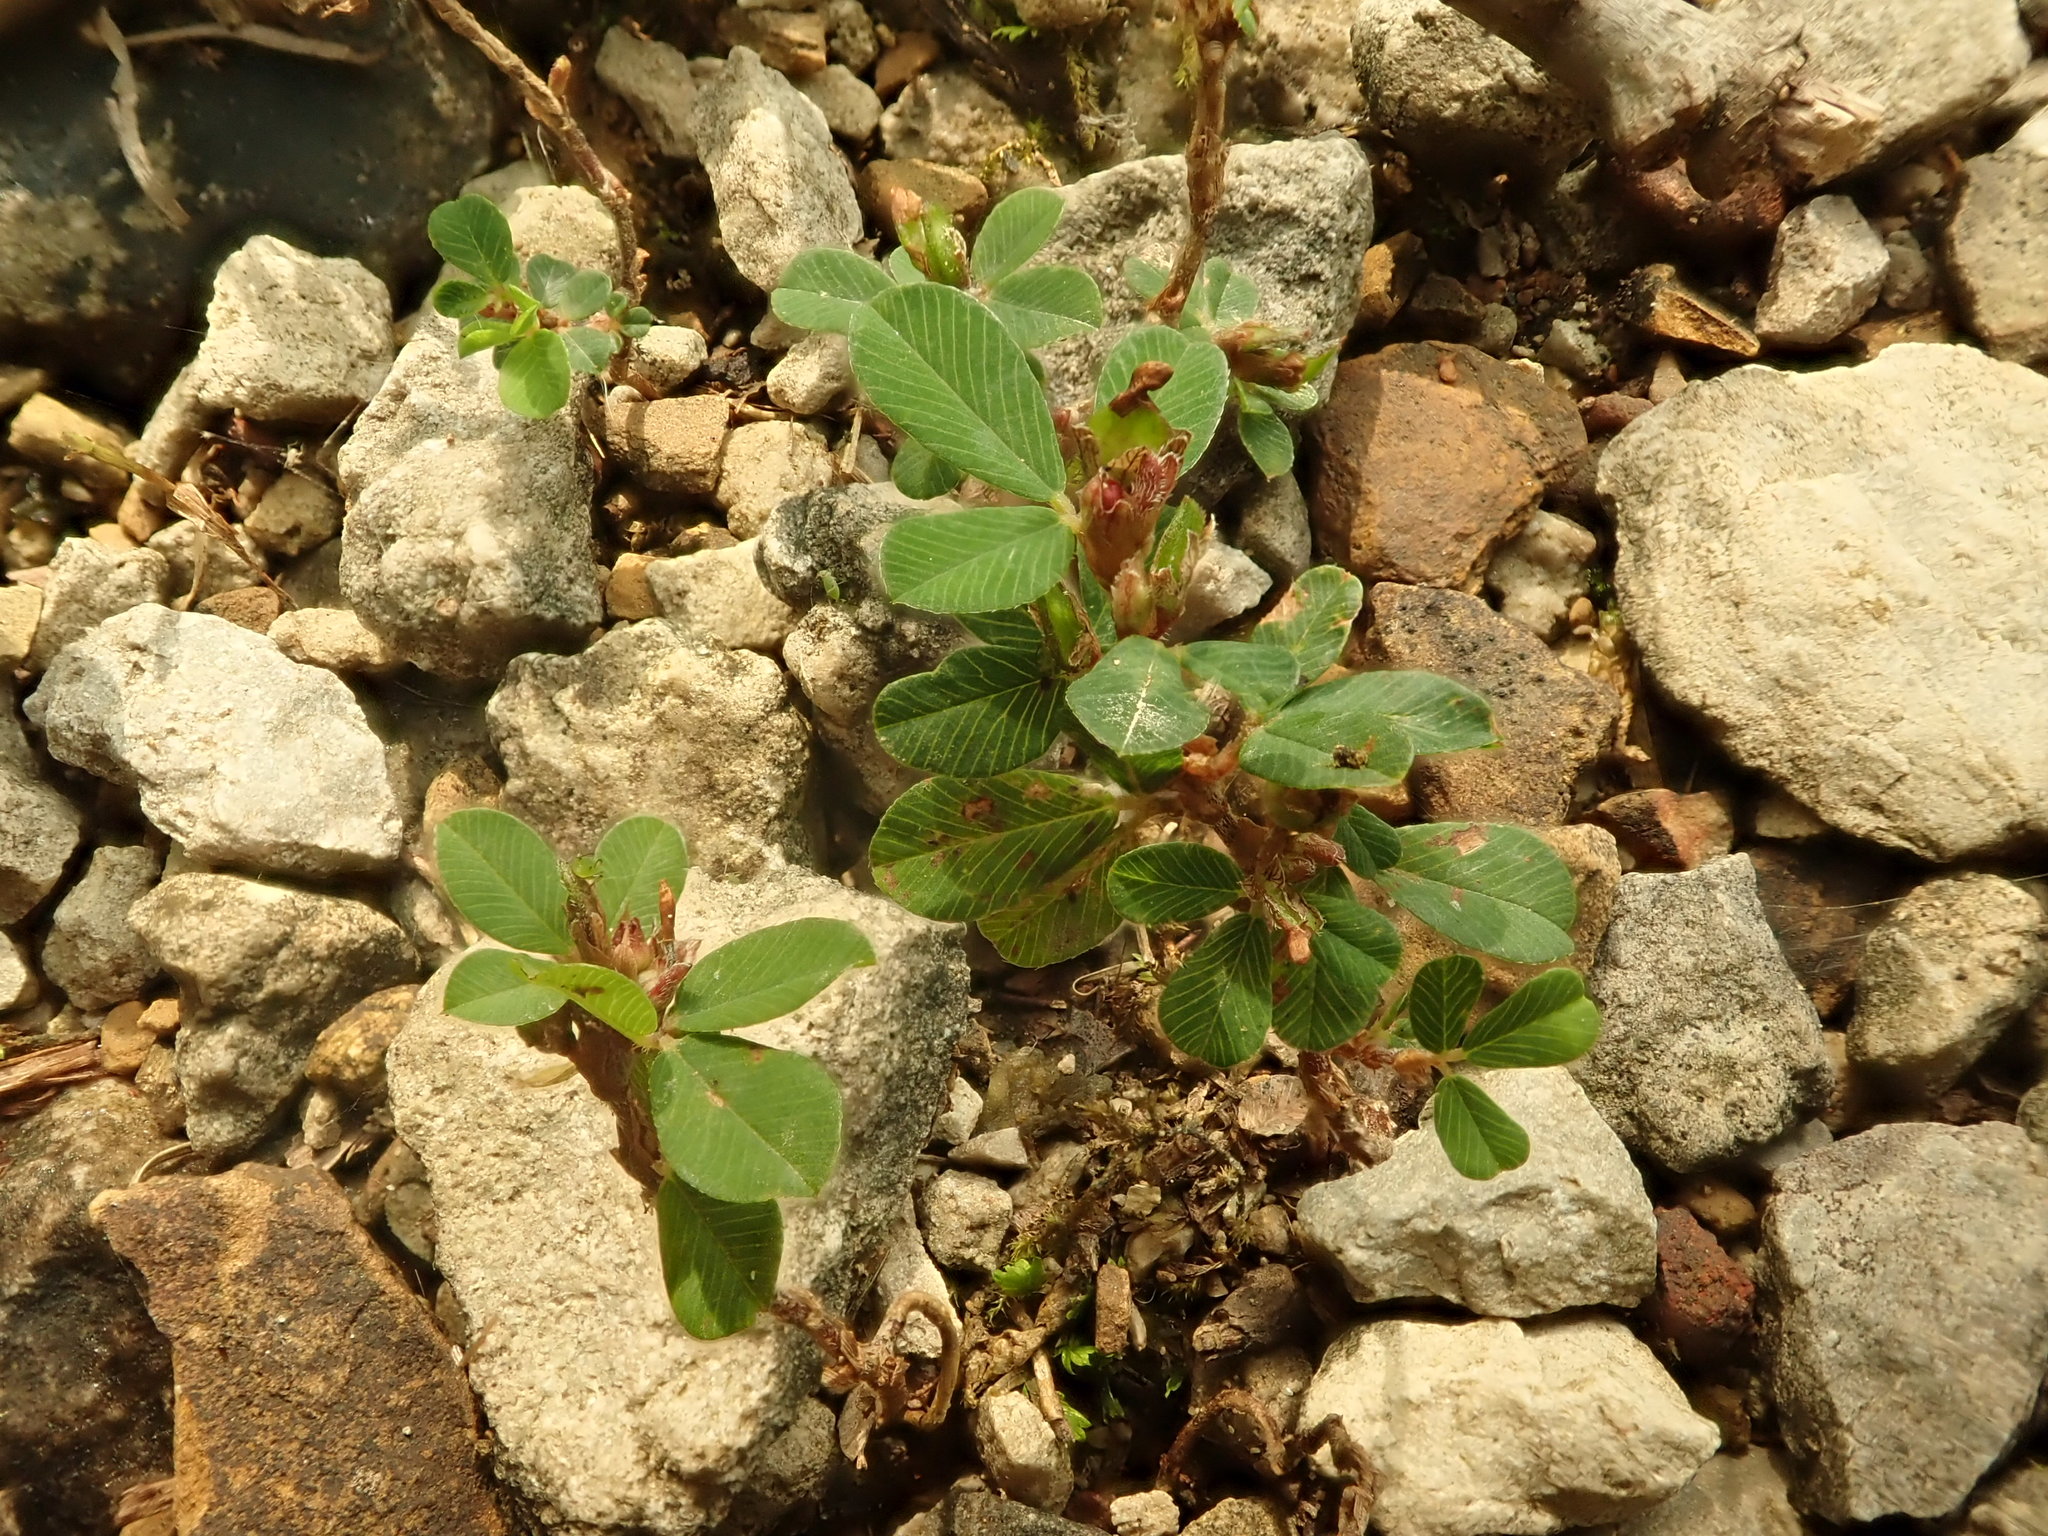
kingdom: Plantae
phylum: Tracheophyta
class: Magnoliopsida
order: Fabales
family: Fabaceae
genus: Kummerowia
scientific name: Kummerowia striata
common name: Japanese clover
